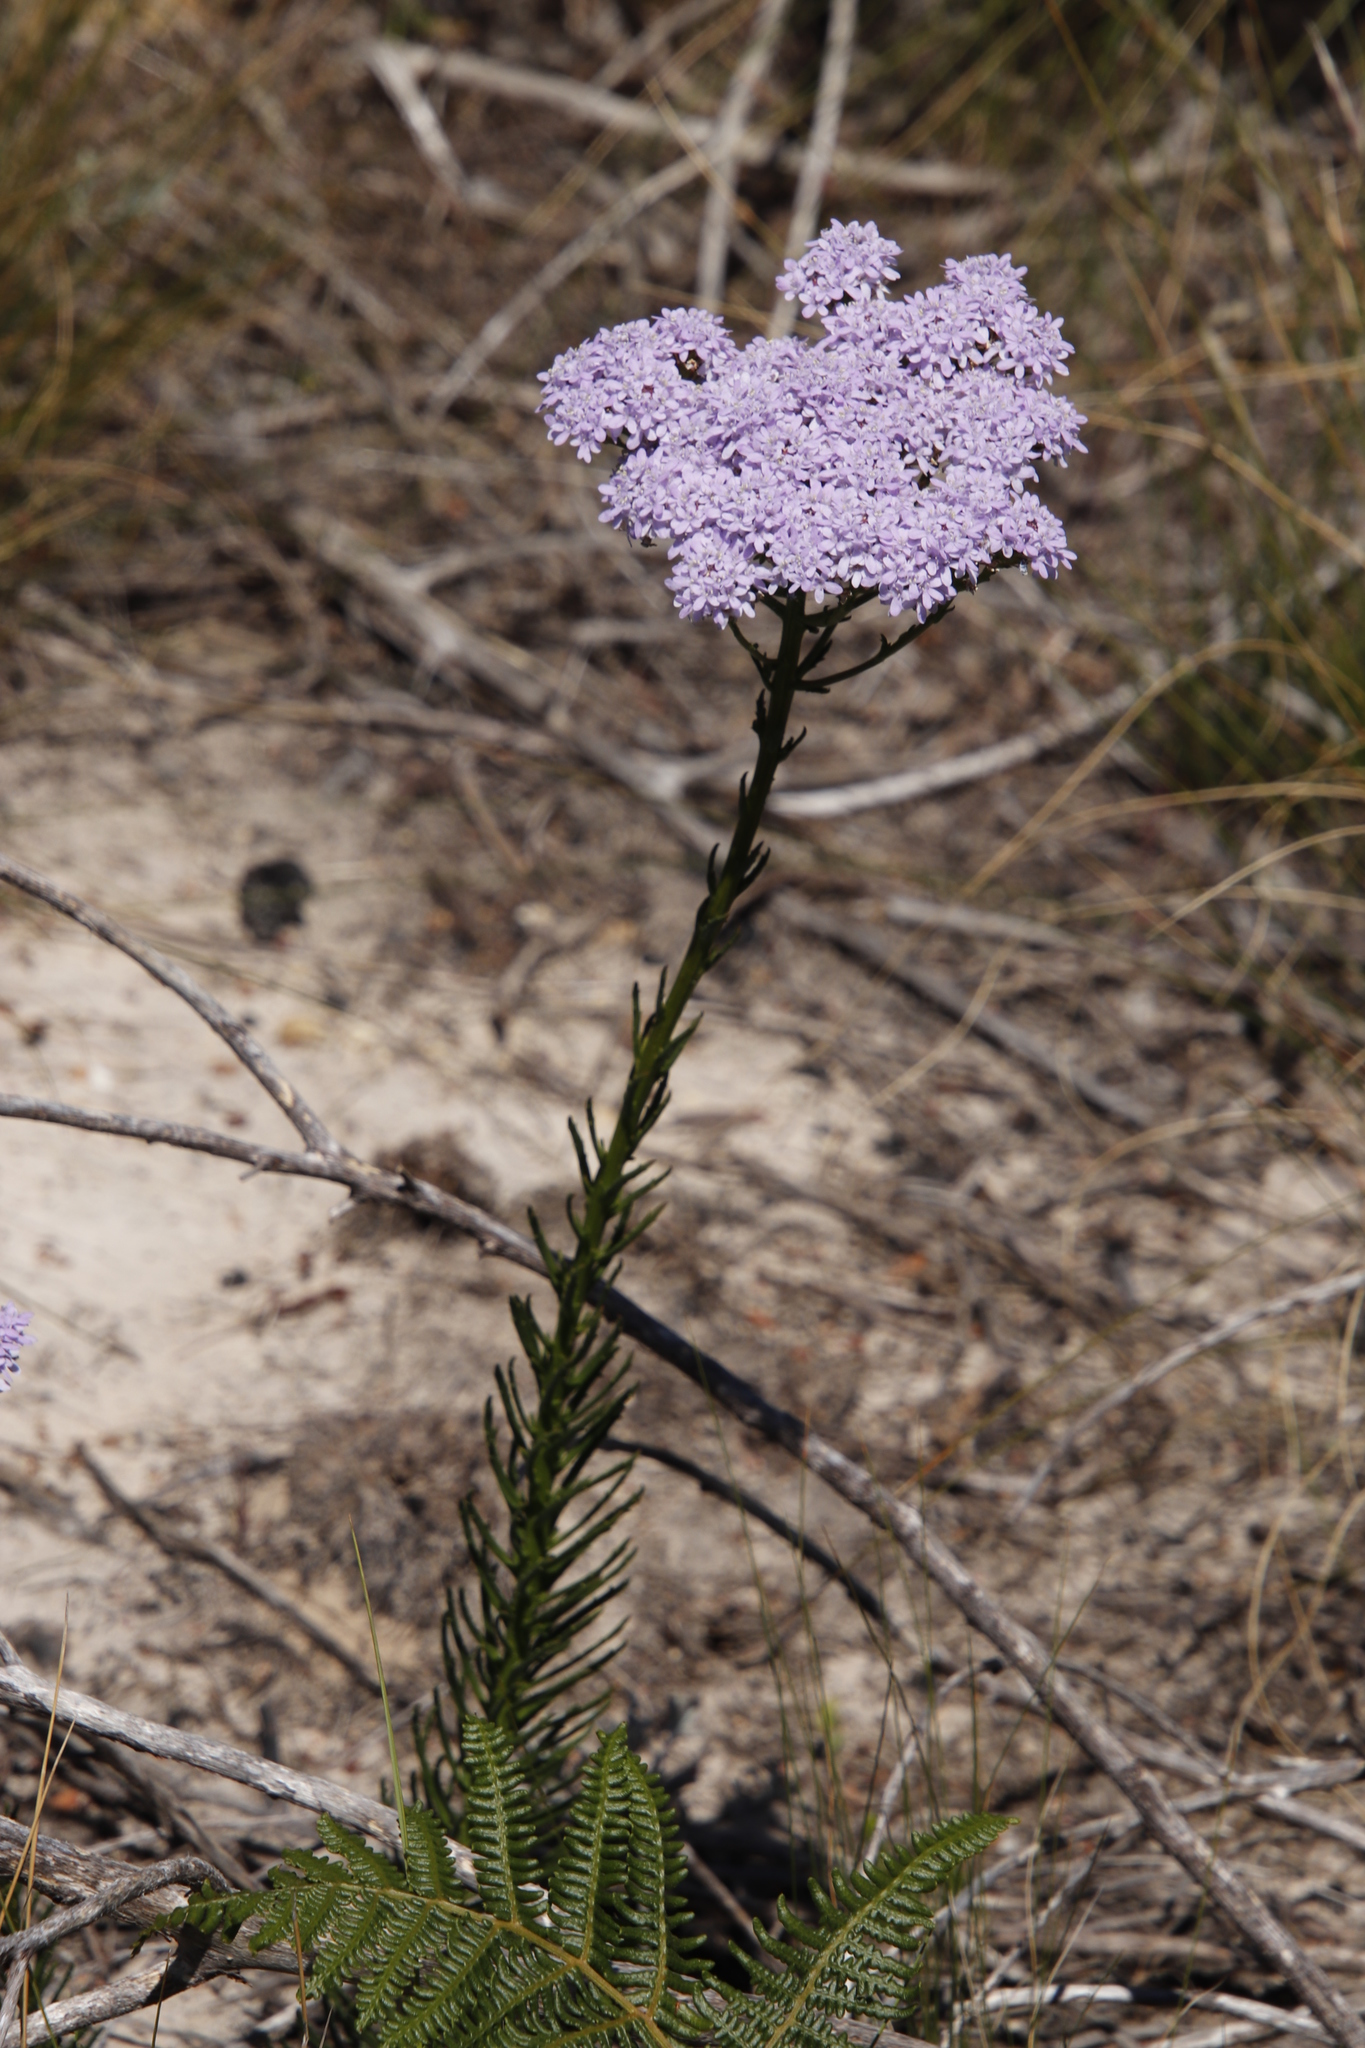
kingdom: Plantae
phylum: Tracheophyta
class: Magnoliopsida
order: Lamiales
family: Scrophulariaceae
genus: Pseudoselago
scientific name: Pseudoselago spuria
